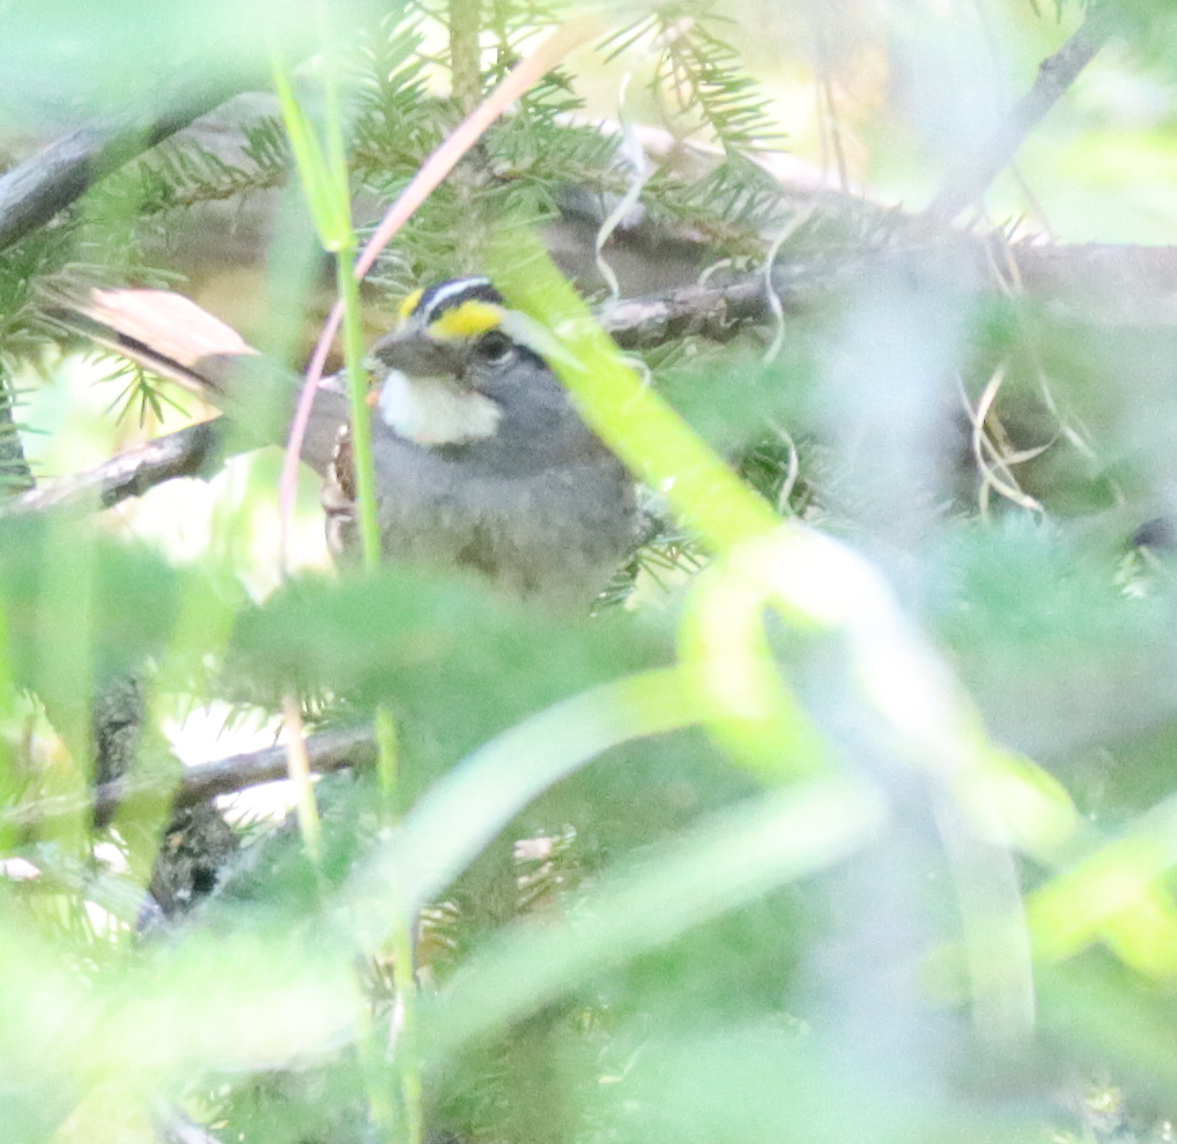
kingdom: Animalia
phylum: Chordata
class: Aves
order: Passeriformes
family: Passerellidae
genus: Zonotrichia
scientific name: Zonotrichia albicollis
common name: White-throated sparrow
